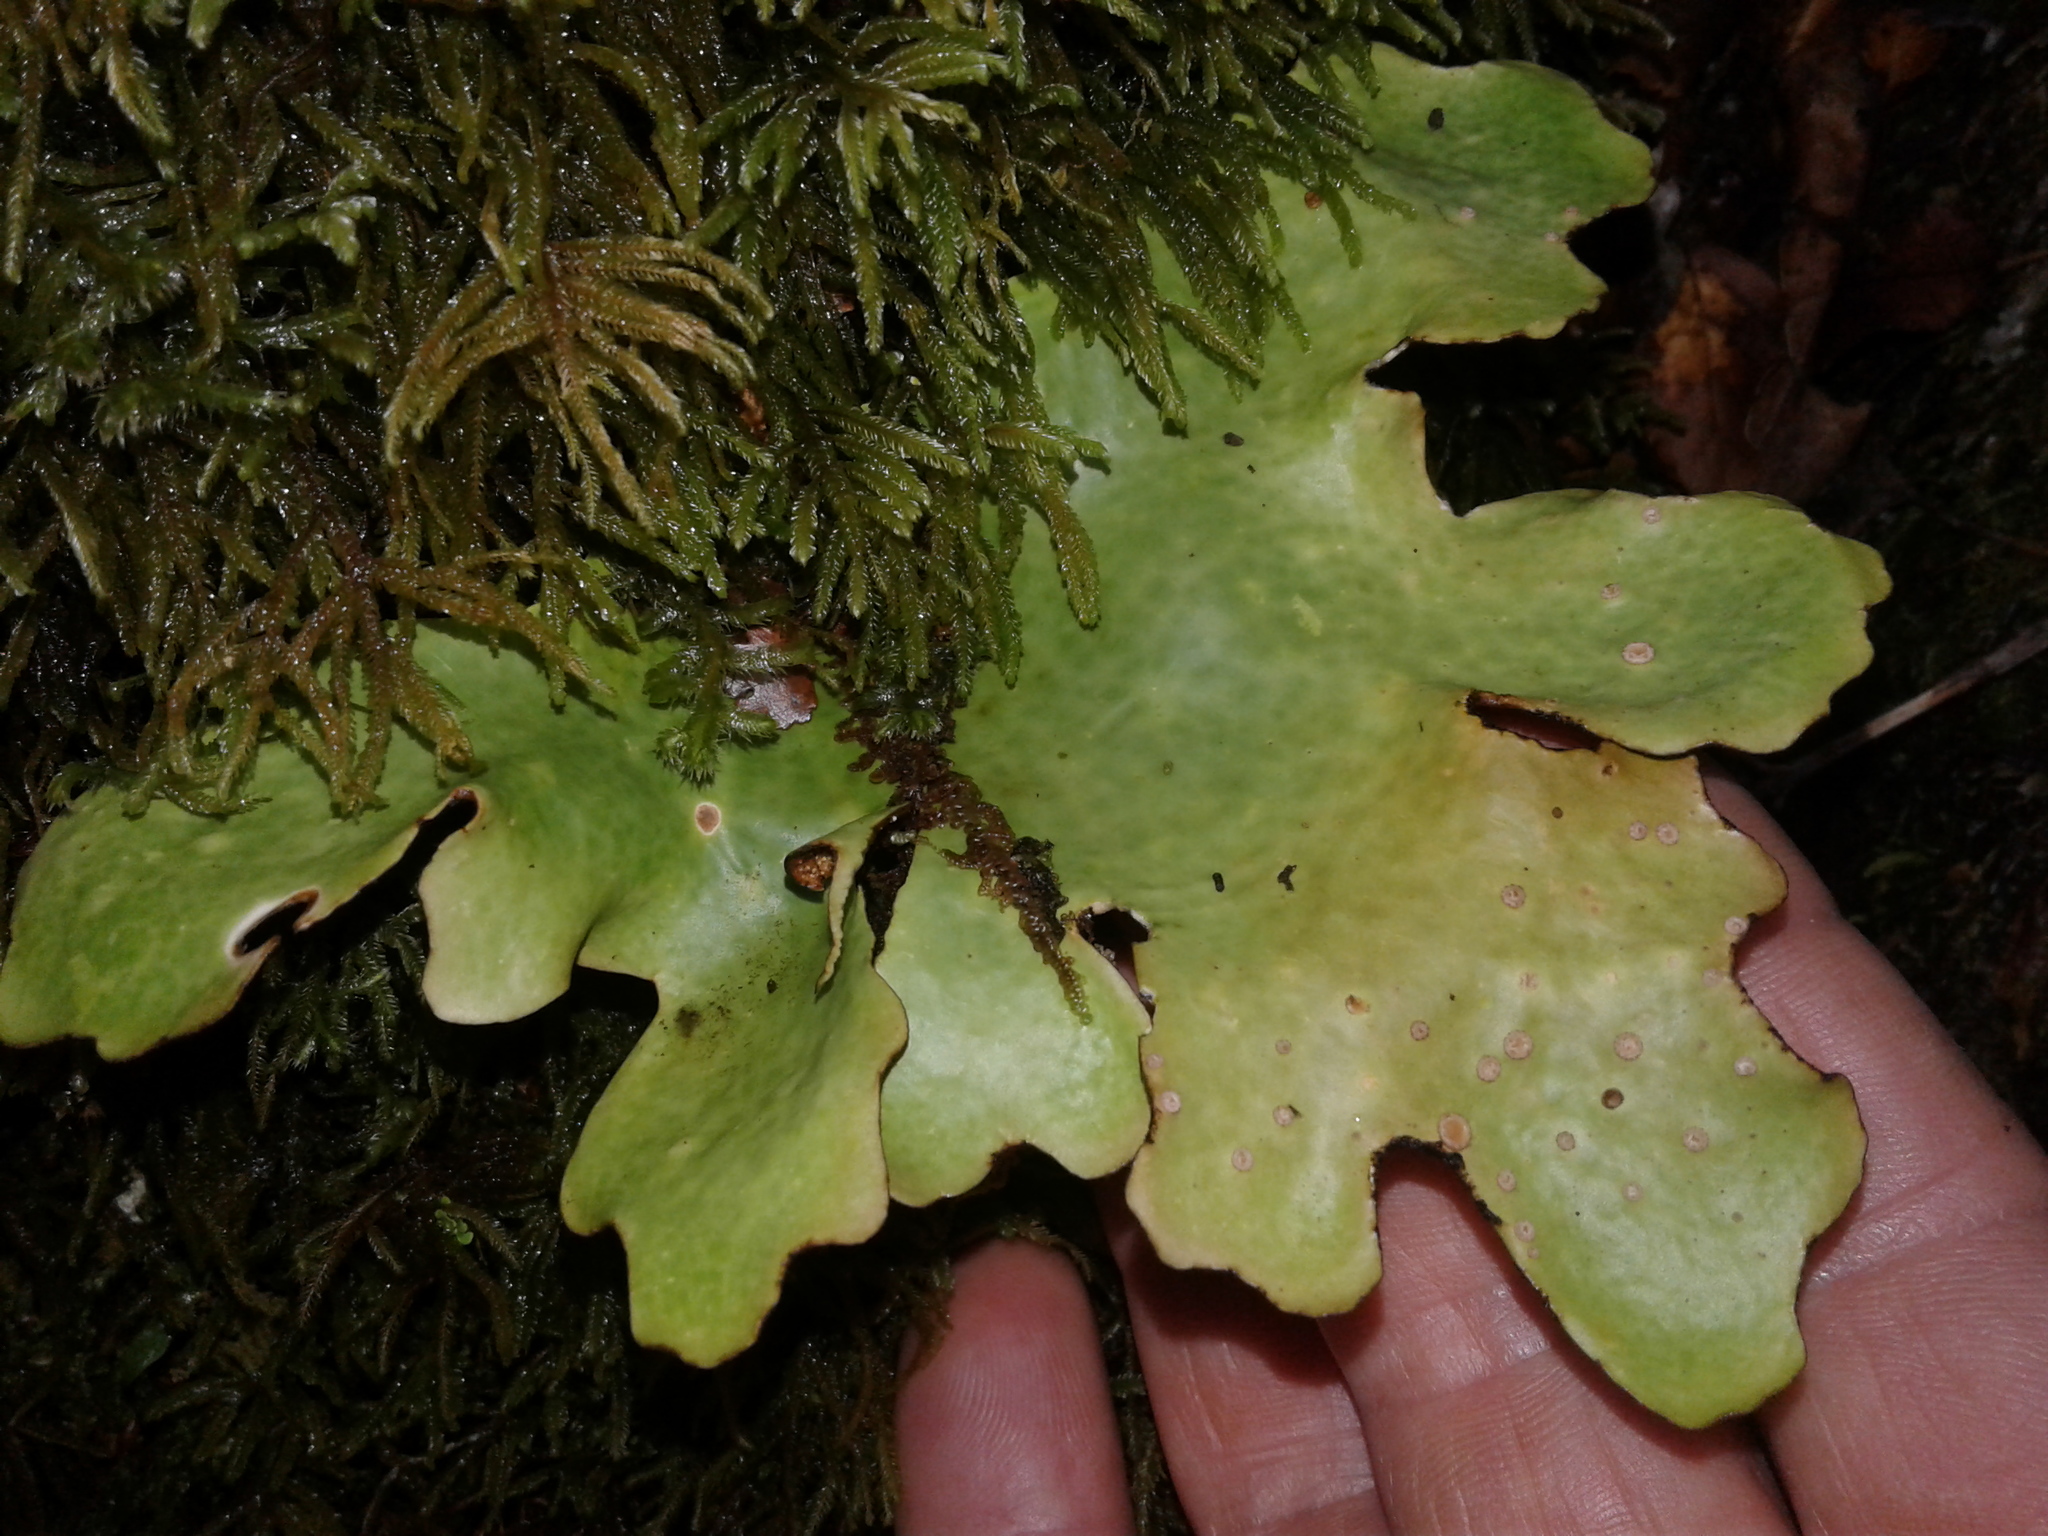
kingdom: Fungi
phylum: Ascomycota
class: Lecanoromycetes
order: Peltigerales
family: Lobariaceae
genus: Sticta
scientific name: Sticta latifrons
